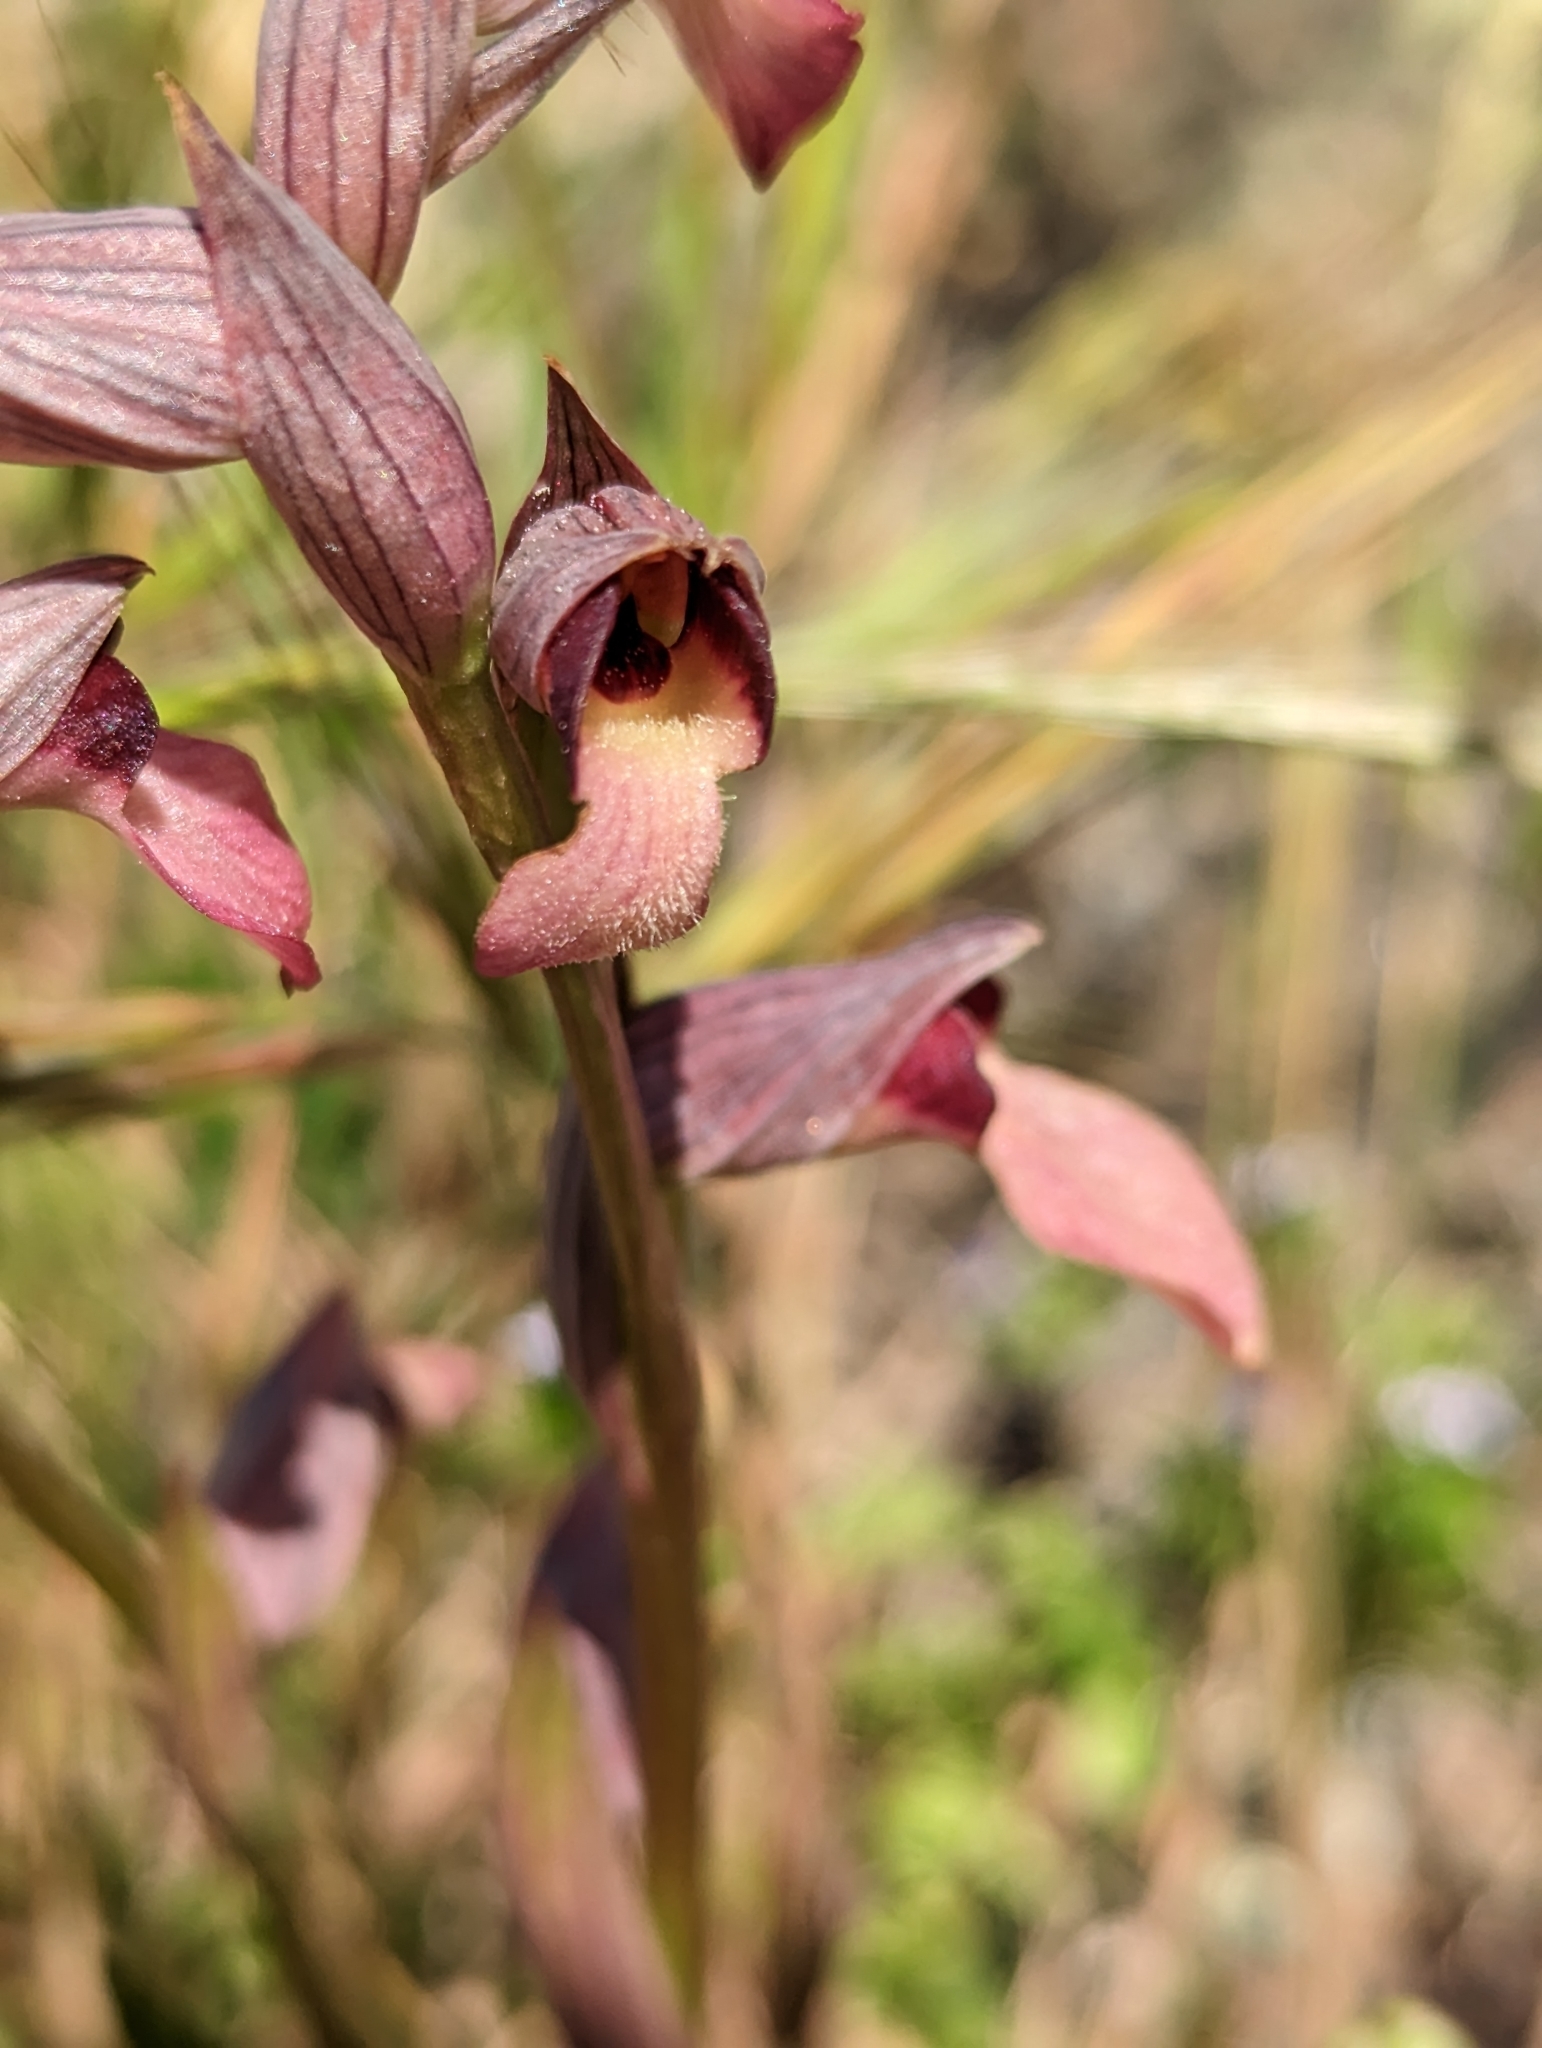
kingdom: Plantae
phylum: Tracheophyta
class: Liliopsida
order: Asparagales
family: Orchidaceae
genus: Serapias
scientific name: Serapias lingua
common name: Tongue-orchid
